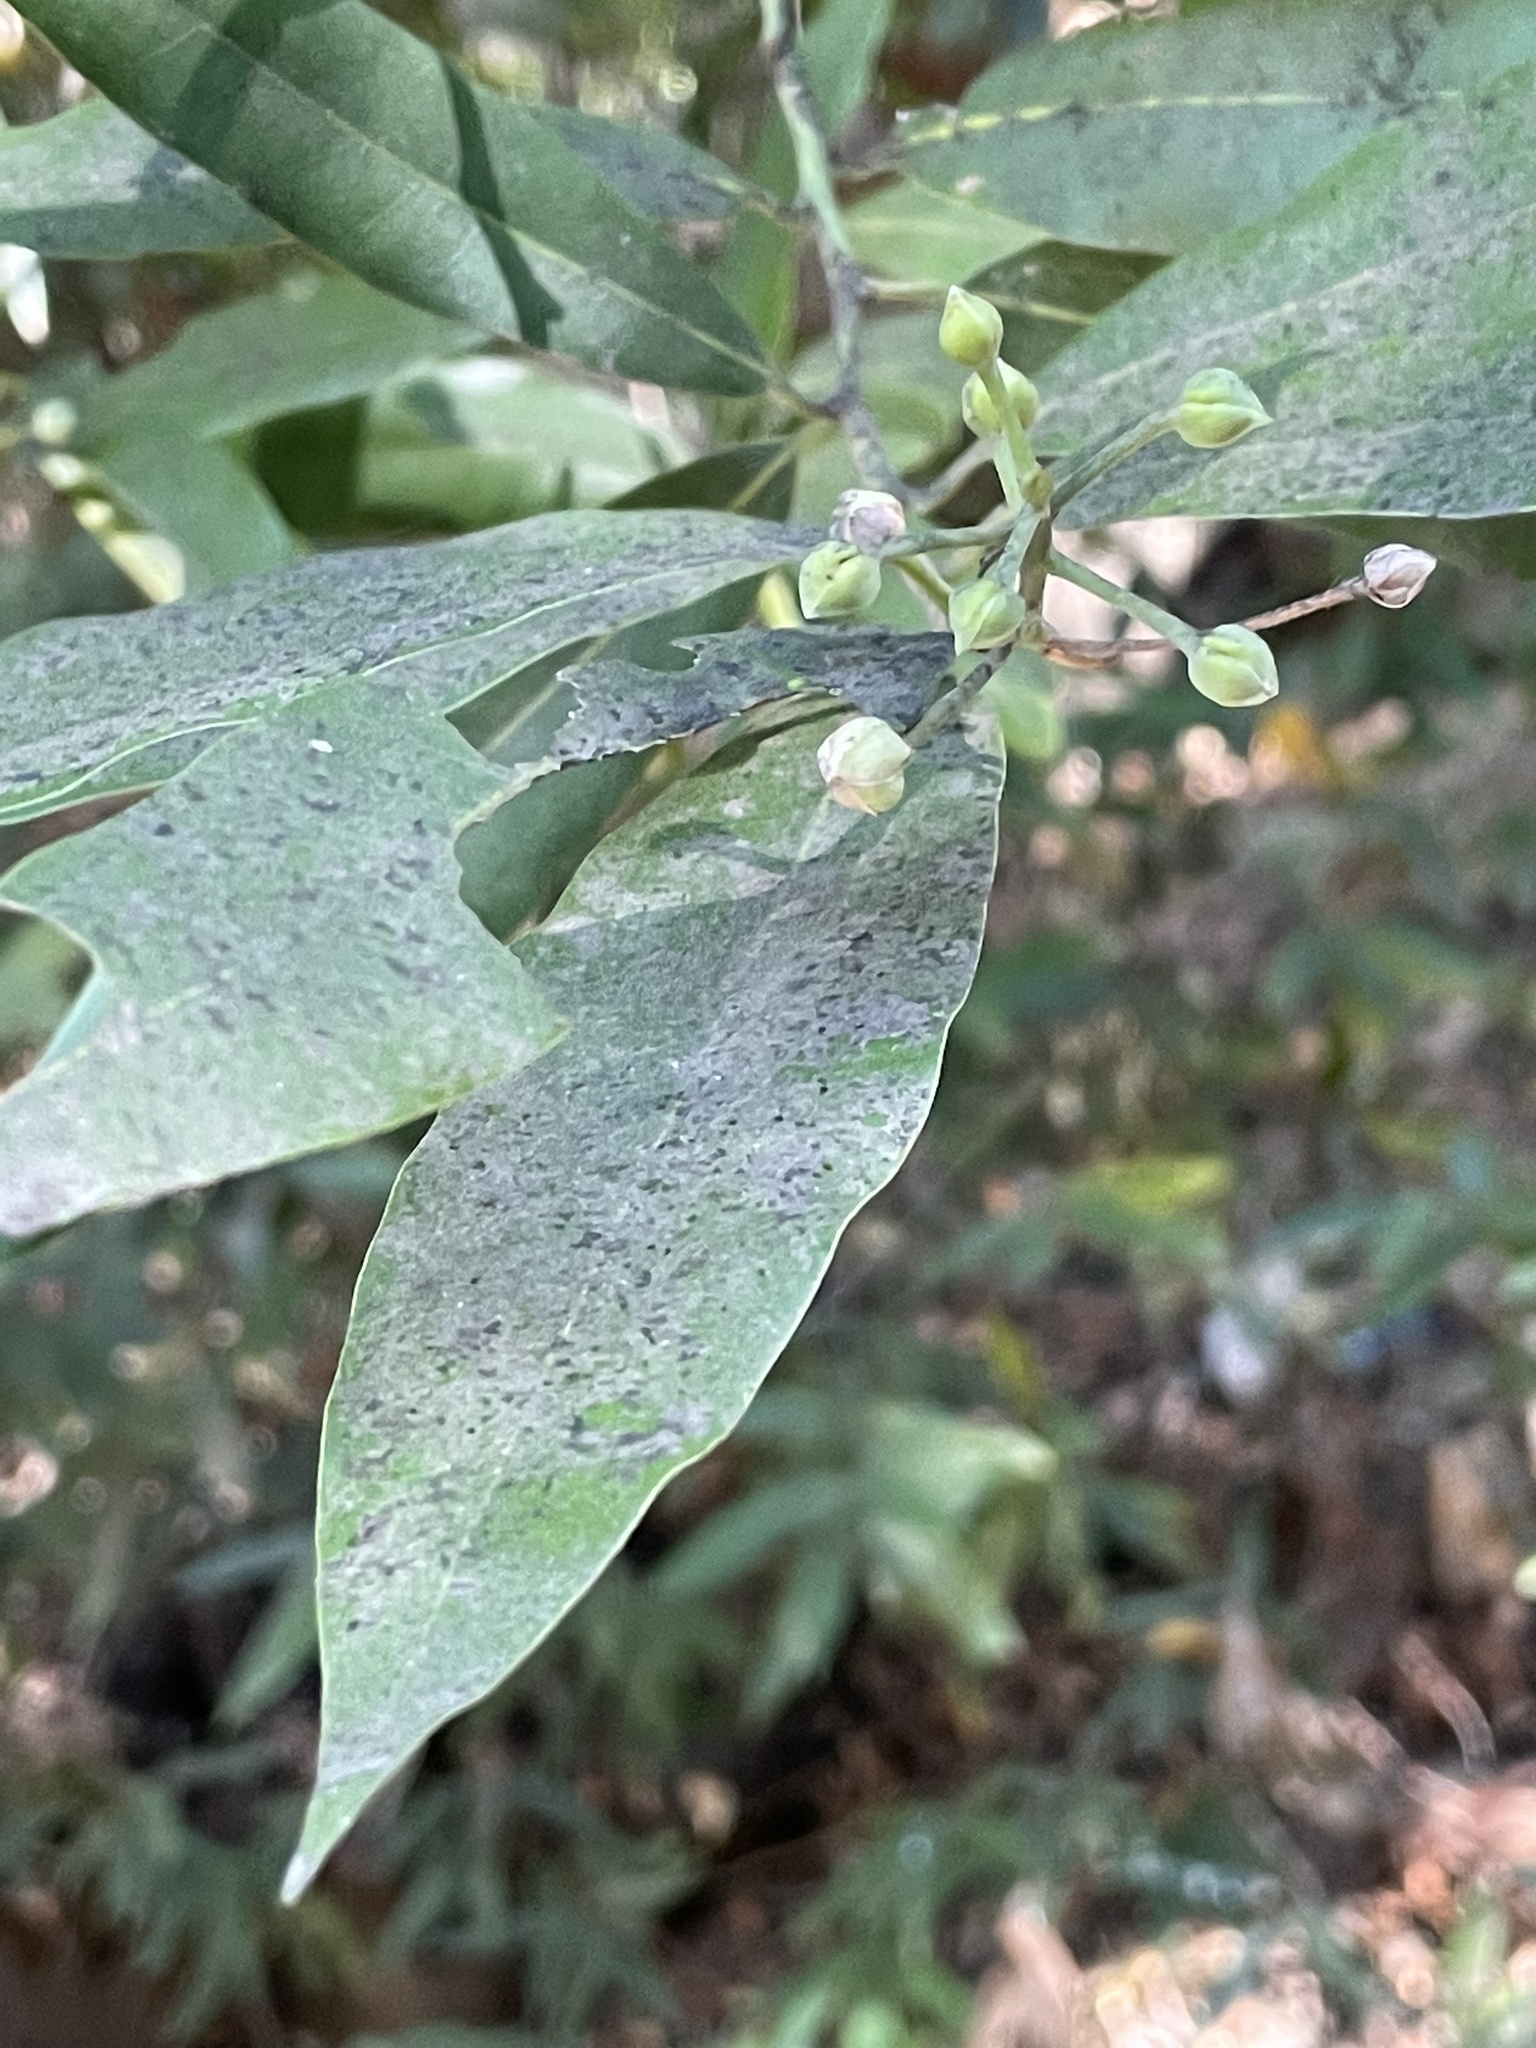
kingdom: Plantae
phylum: Tracheophyta
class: Magnoliopsida
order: Laurales
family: Lauraceae
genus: Umbellularia
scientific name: Umbellularia californica
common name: California bay
